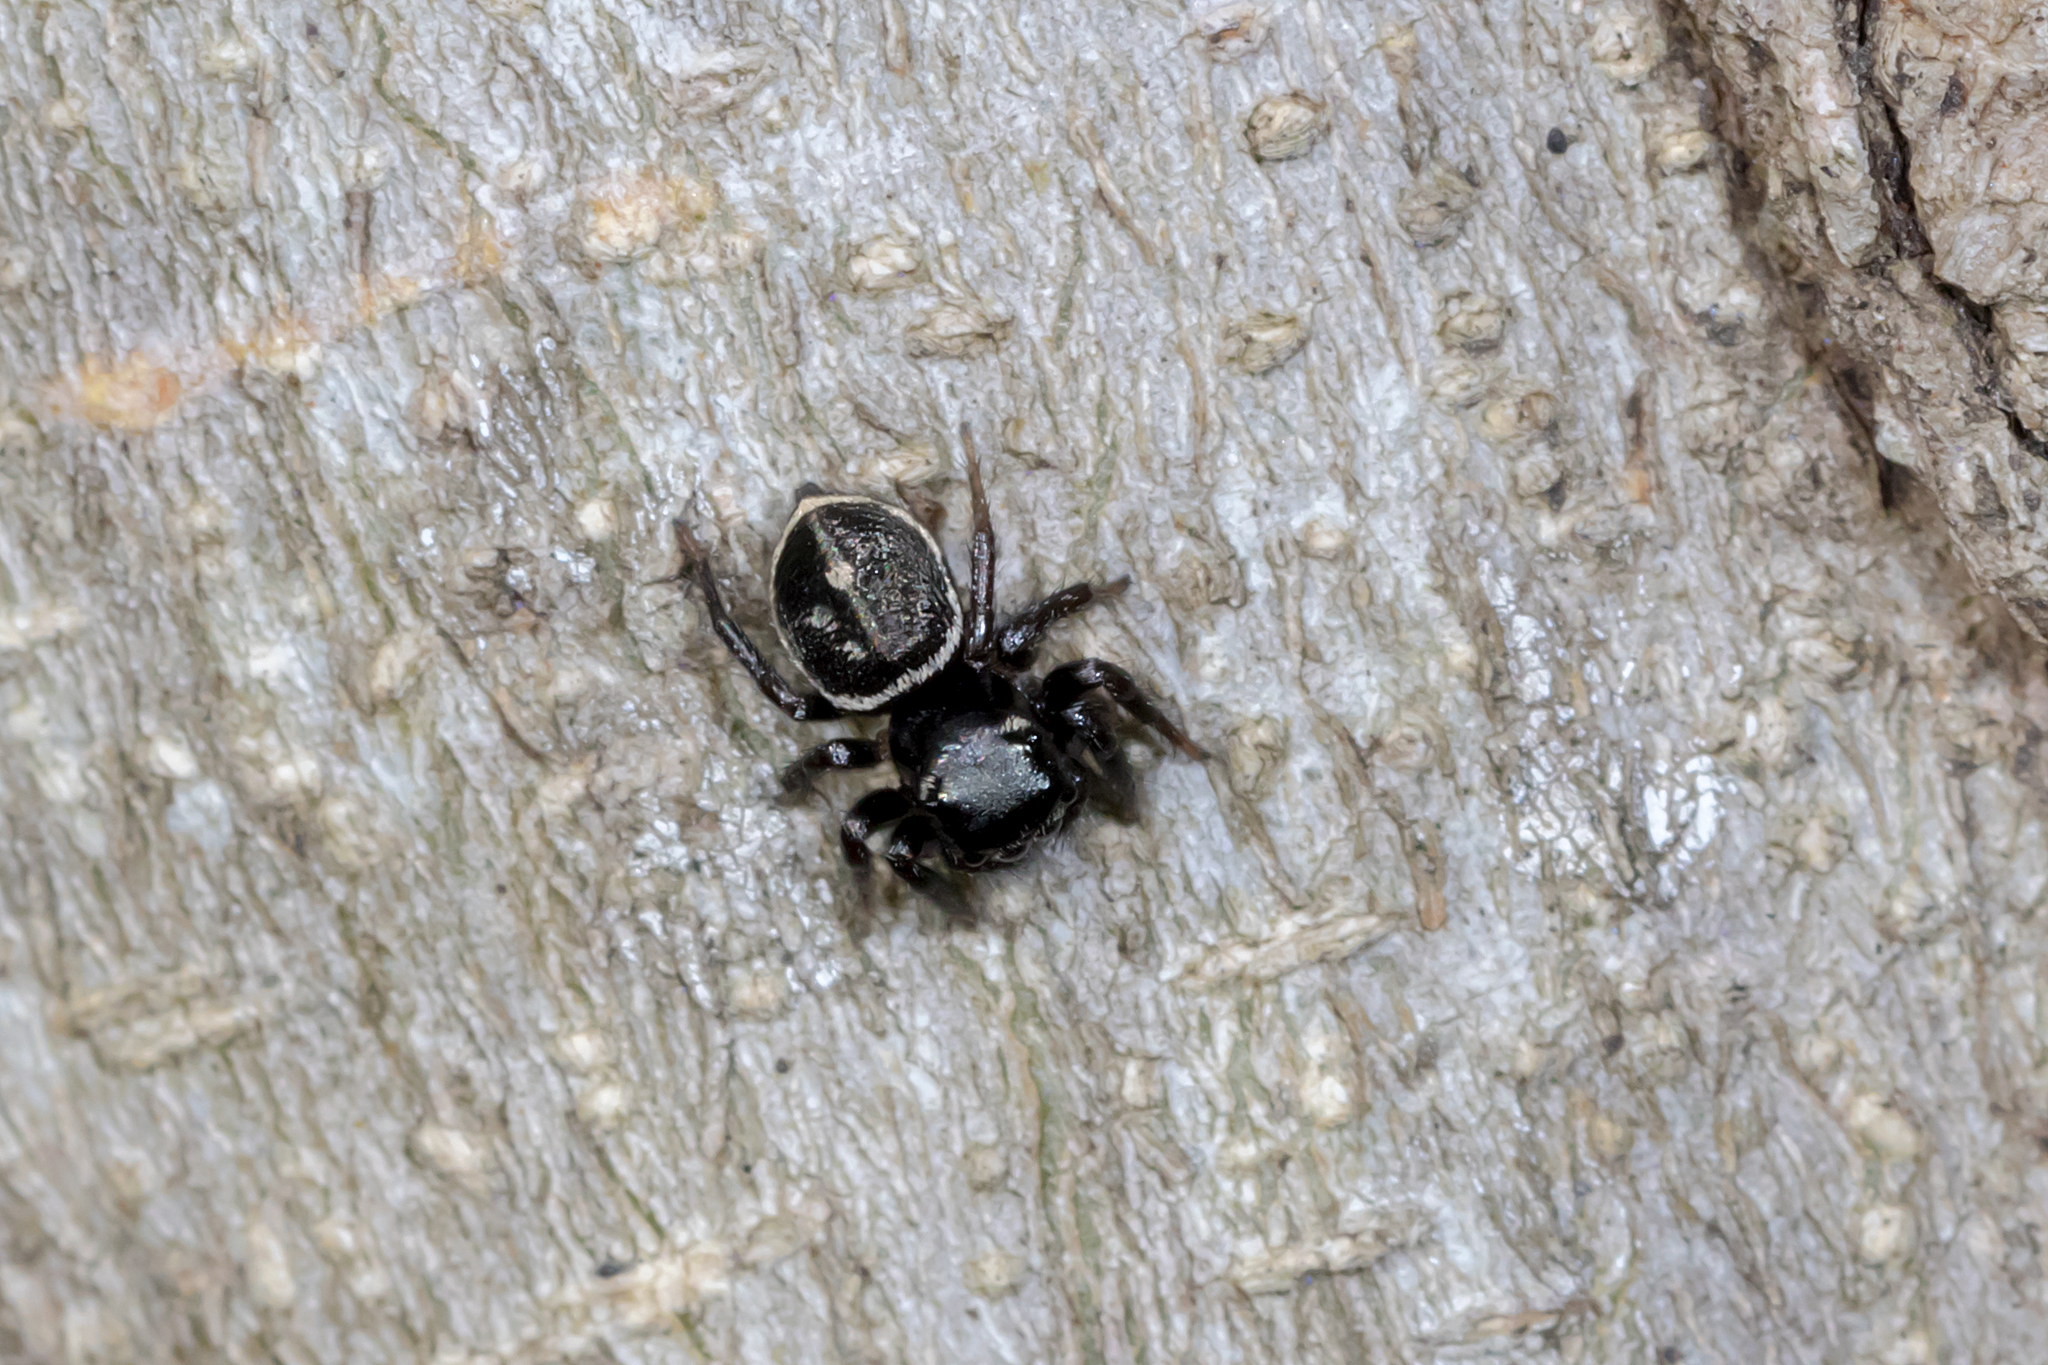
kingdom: Animalia
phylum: Arthropoda
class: Arachnida
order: Araneae
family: Salticidae
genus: Zenodorus
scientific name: Zenodorus orbiculatus
